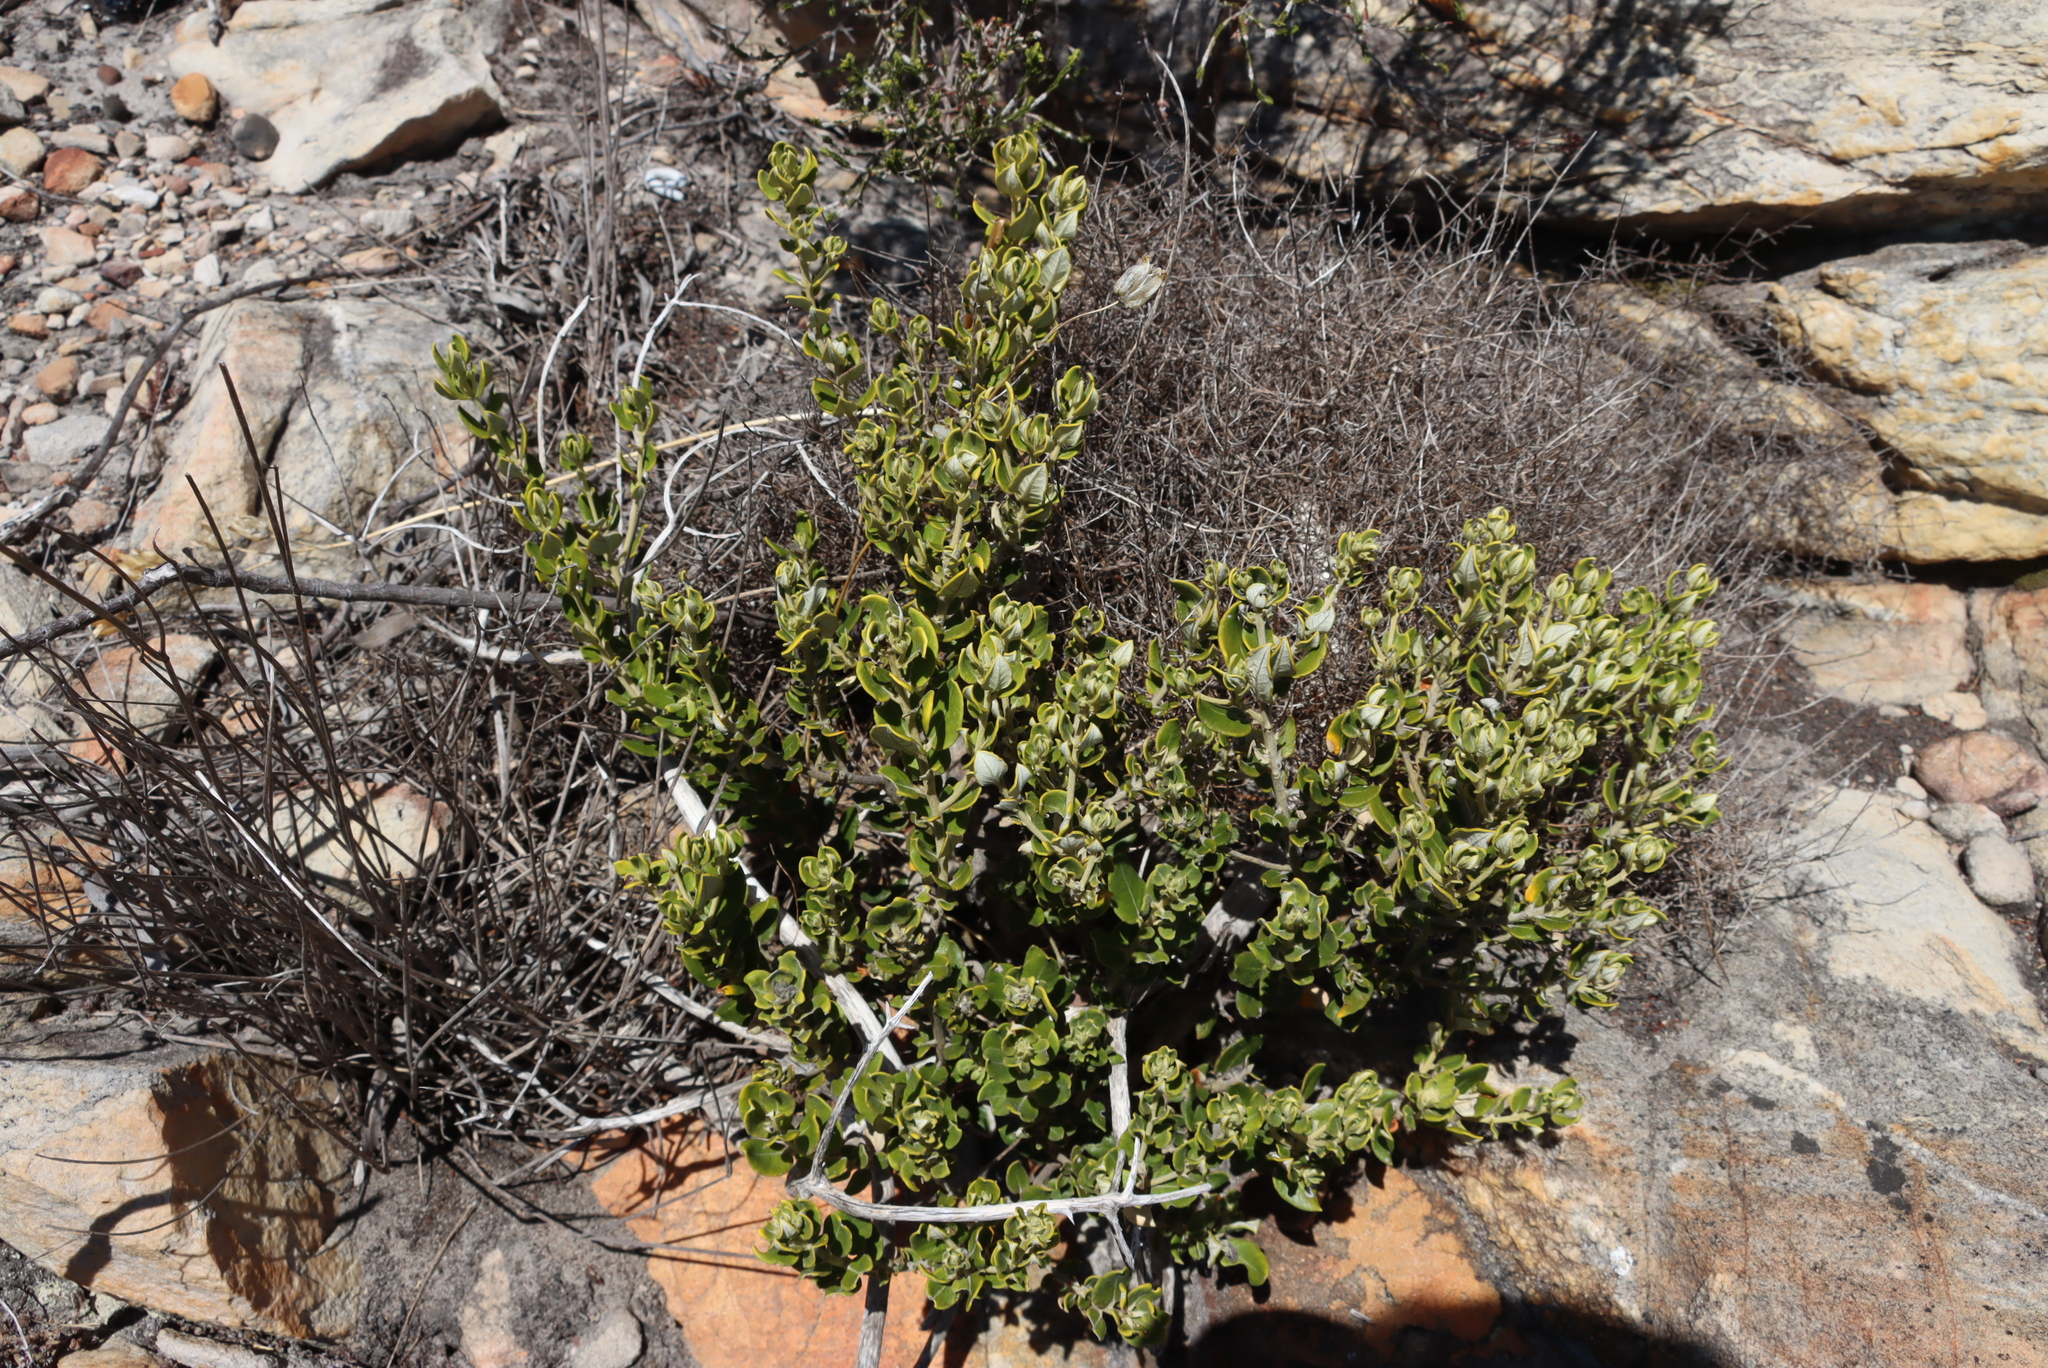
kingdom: Plantae
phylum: Tracheophyta
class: Magnoliopsida
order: Rosales
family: Rhamnaceae
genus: Phylica
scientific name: Phylica buxifolia
